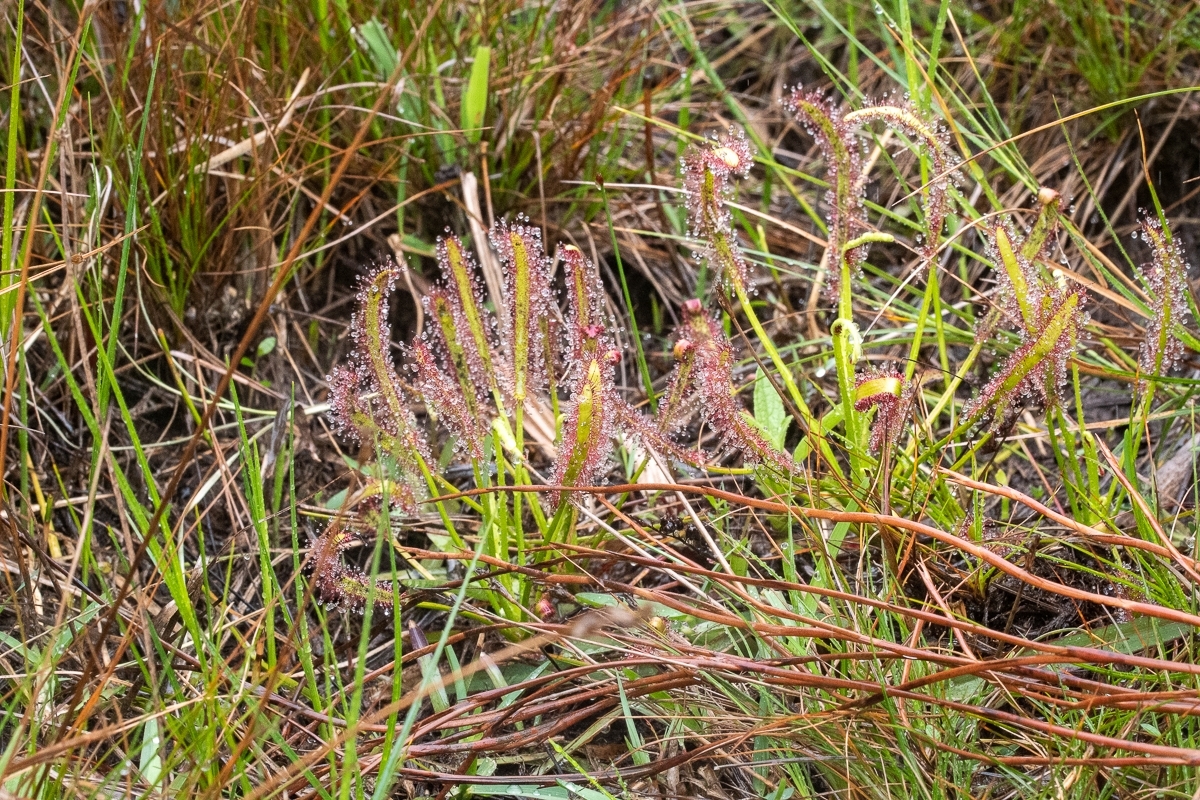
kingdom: Plantae
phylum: Tracheophyta
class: Magnoliopsida
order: Caryophyllales
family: Droseraceae
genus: Drosera
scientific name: Drosera capensis
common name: Cape sundew
